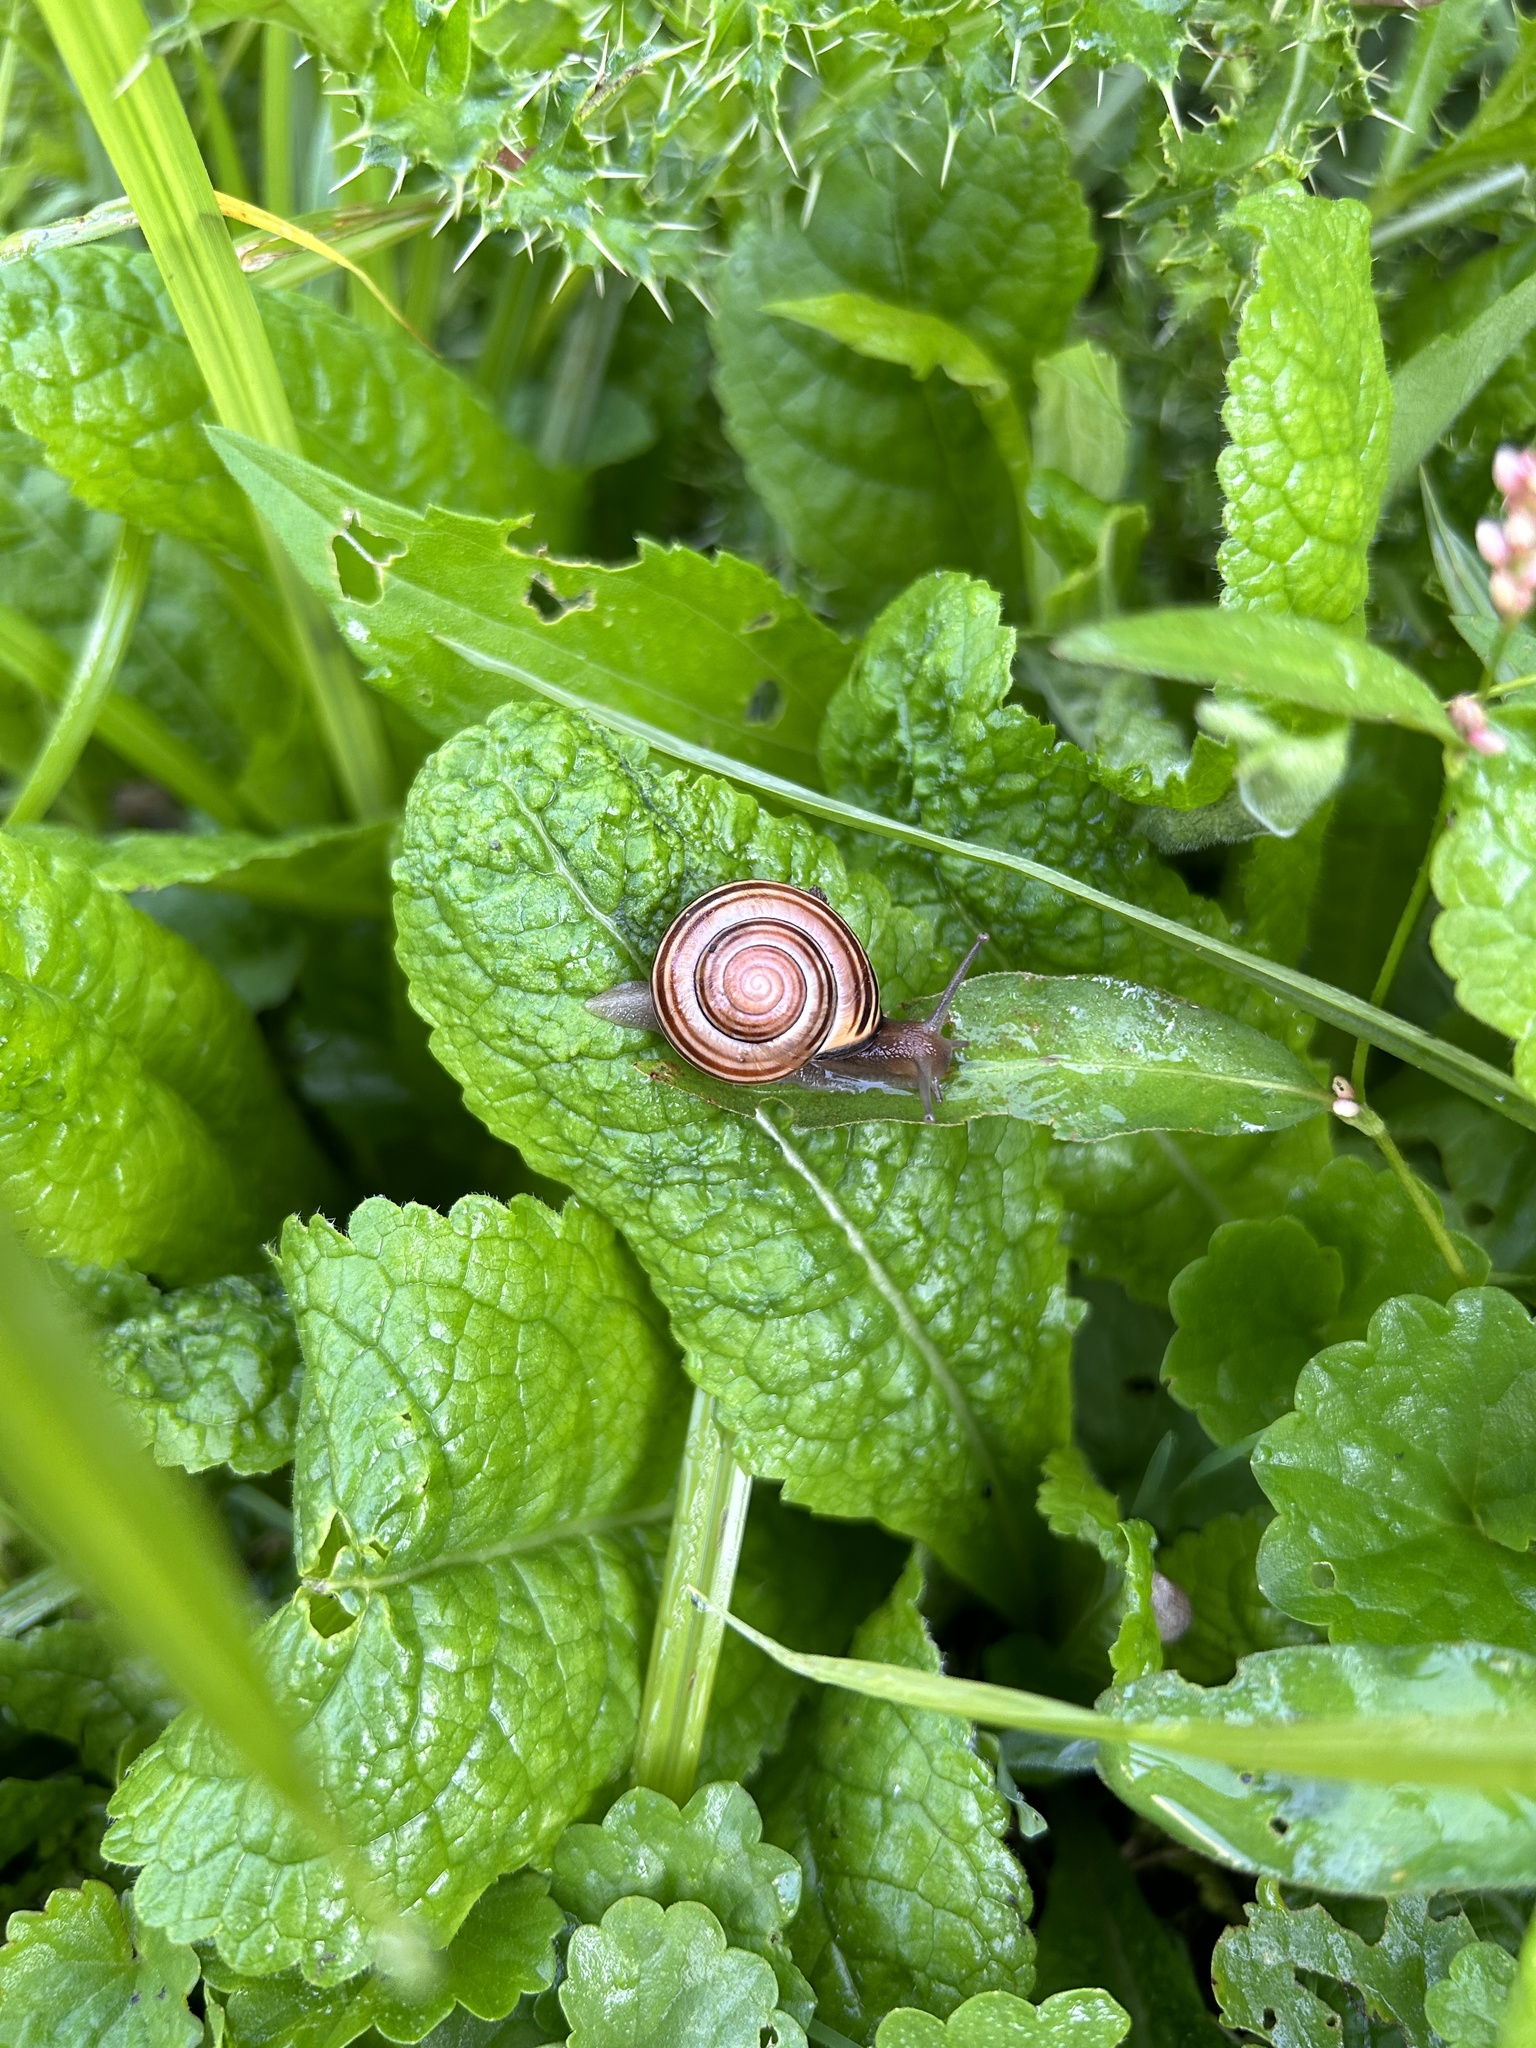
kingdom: Animalia
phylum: Mollusca
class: Gastropoda
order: Stylommatophora
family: Helicidae
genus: Cepaea
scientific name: Cepaea nemoralis
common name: Grovesnail
